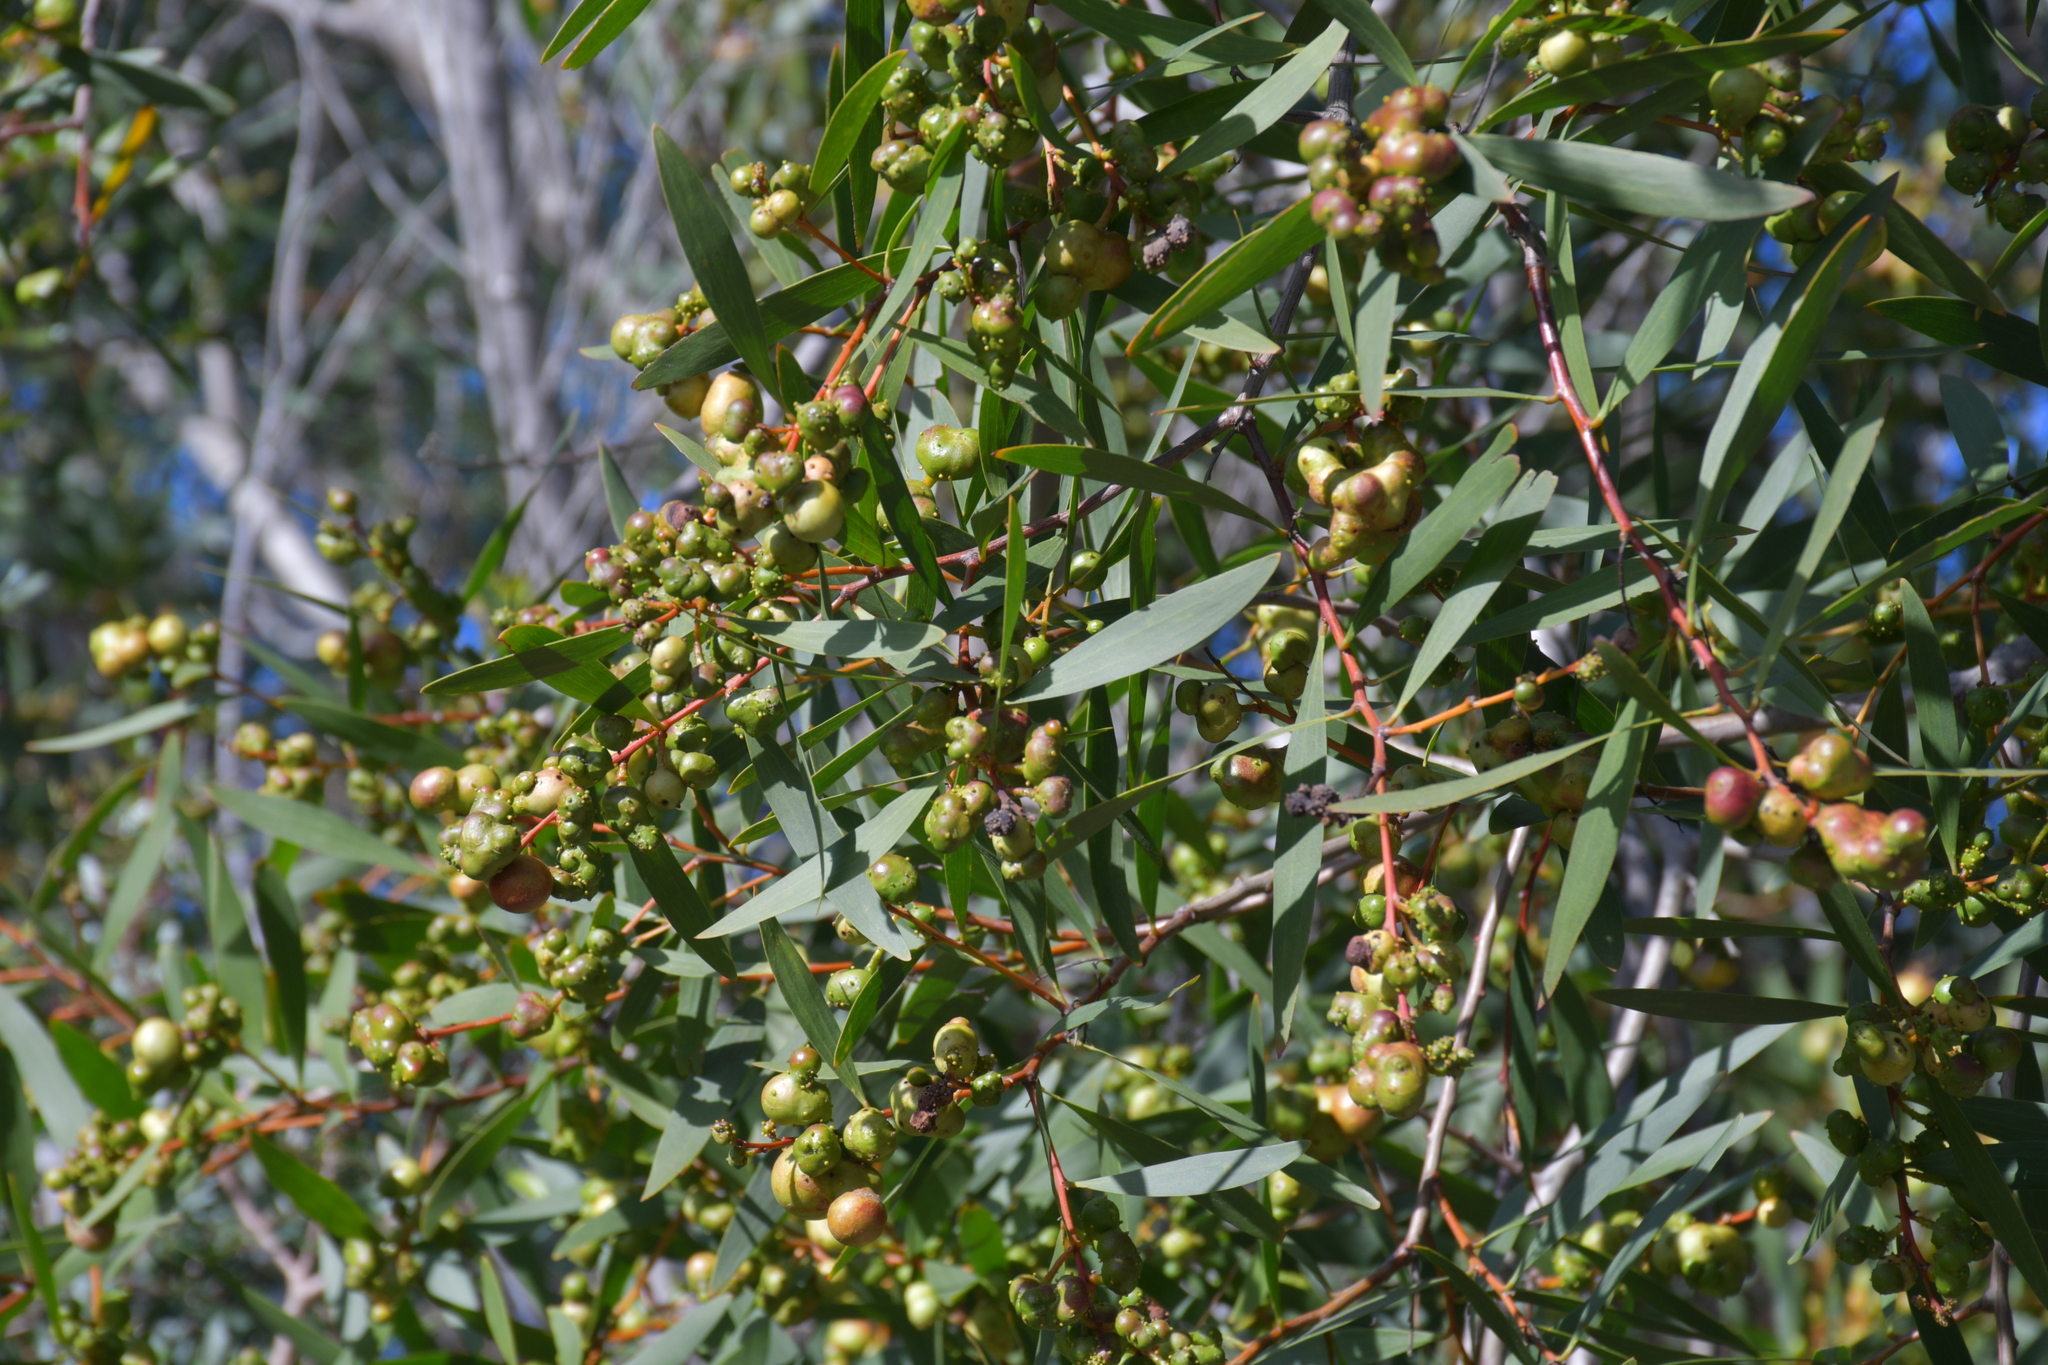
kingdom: Plantae
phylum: Tracheophyta
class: Magnoliopsida
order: Fabales
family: Fabaceae
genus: Acacia
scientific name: Acacia longifolia
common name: Sydney golden wattle
